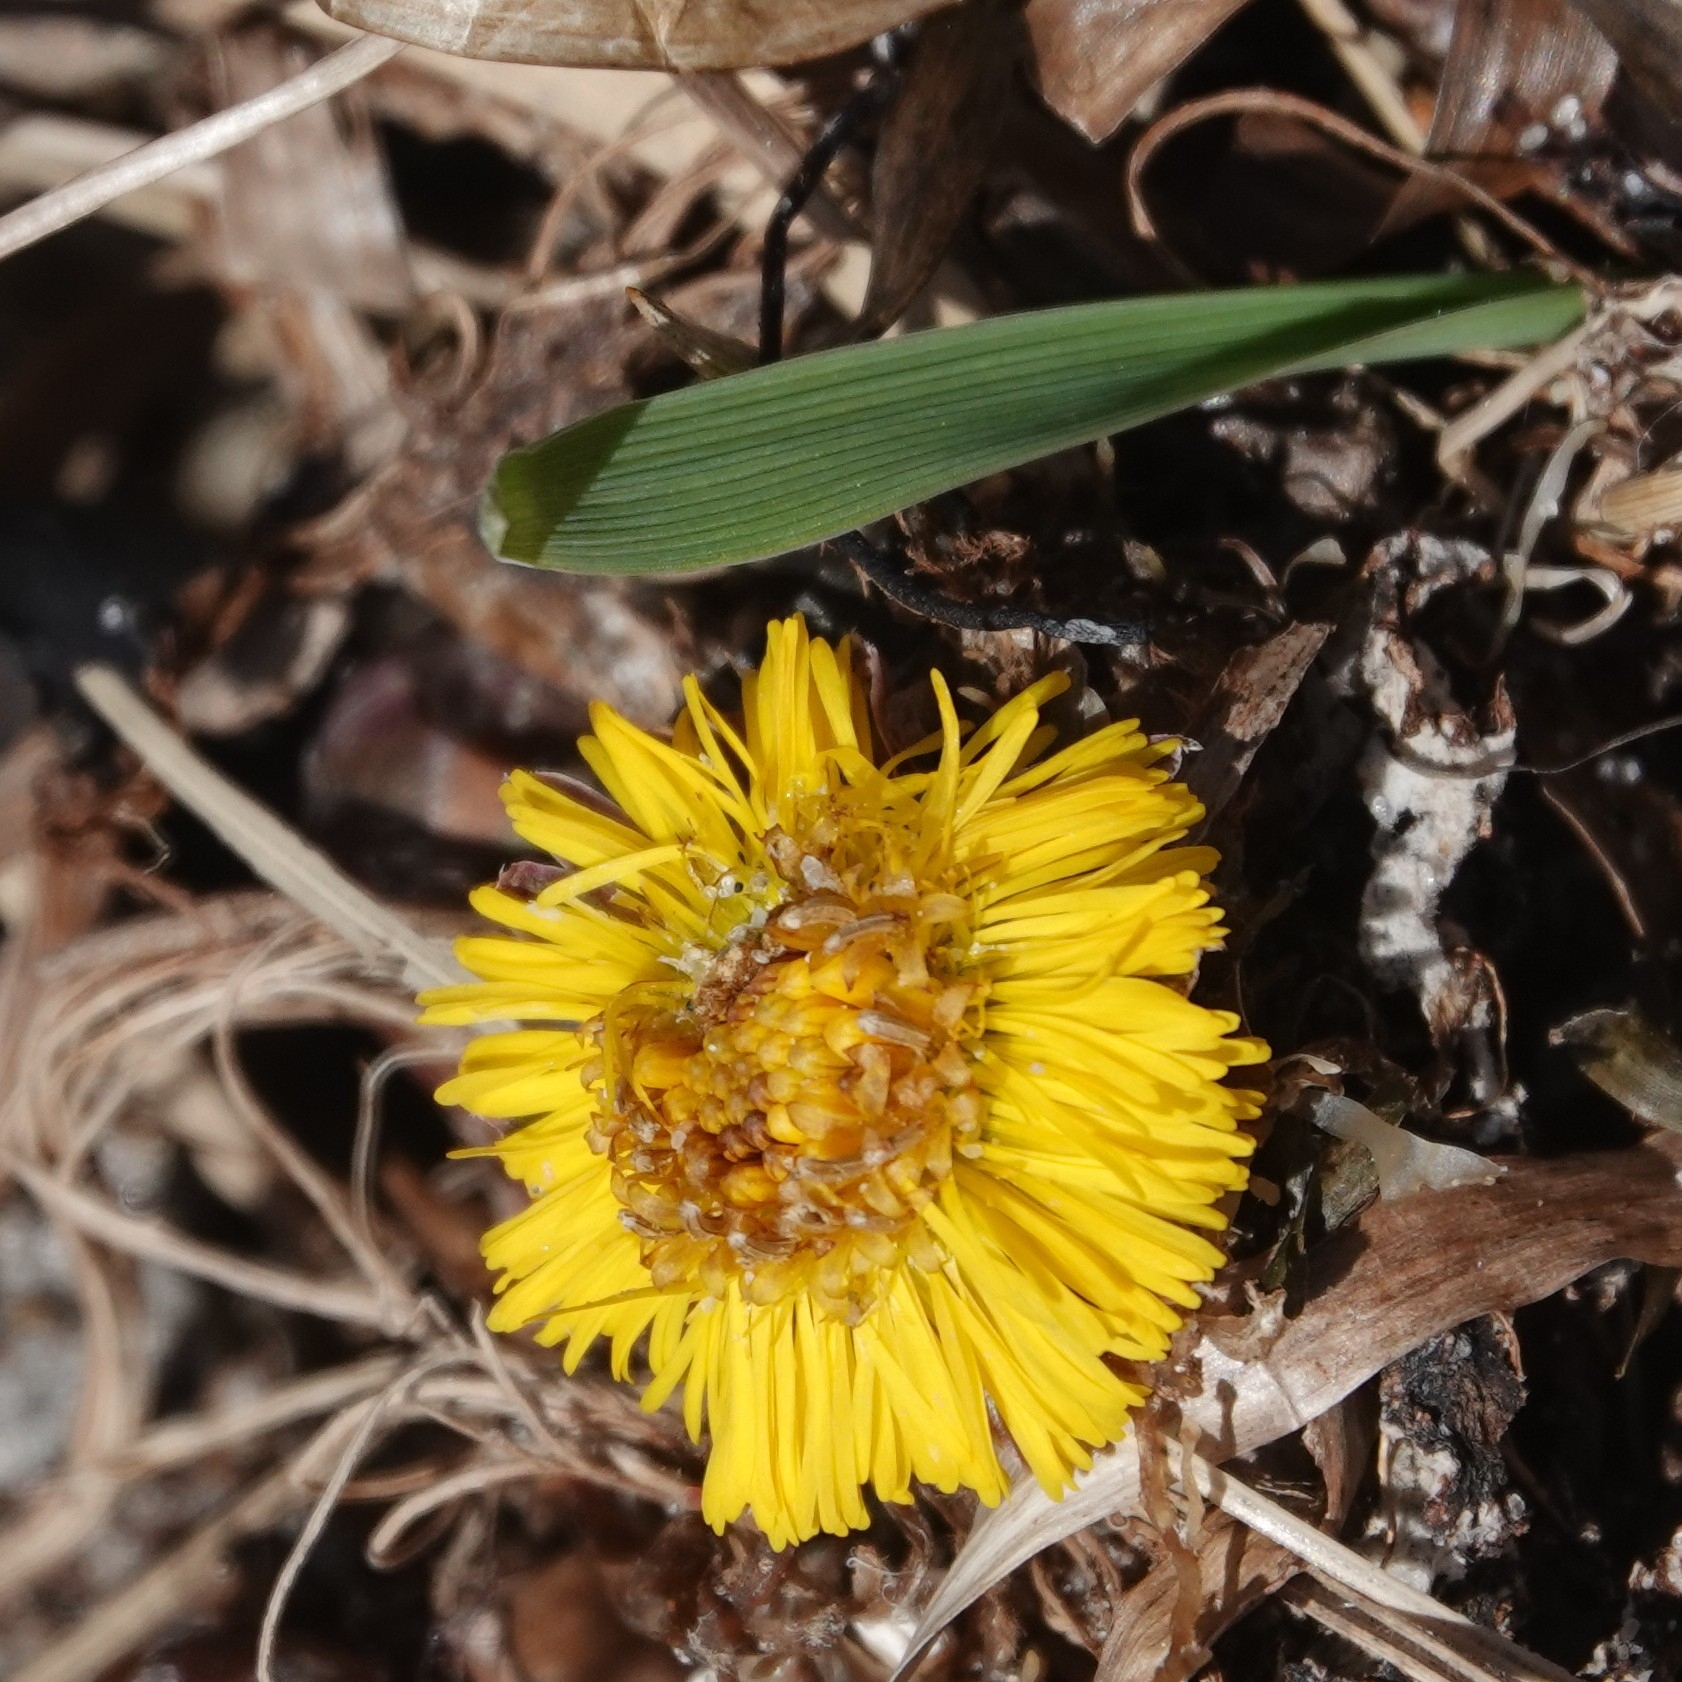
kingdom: Plantae
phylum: Tracheophyta
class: Magnoliopsida
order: Asterales
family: Asteraceae
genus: Tussilago
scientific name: Tussilago farfara
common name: Coltsfoot
